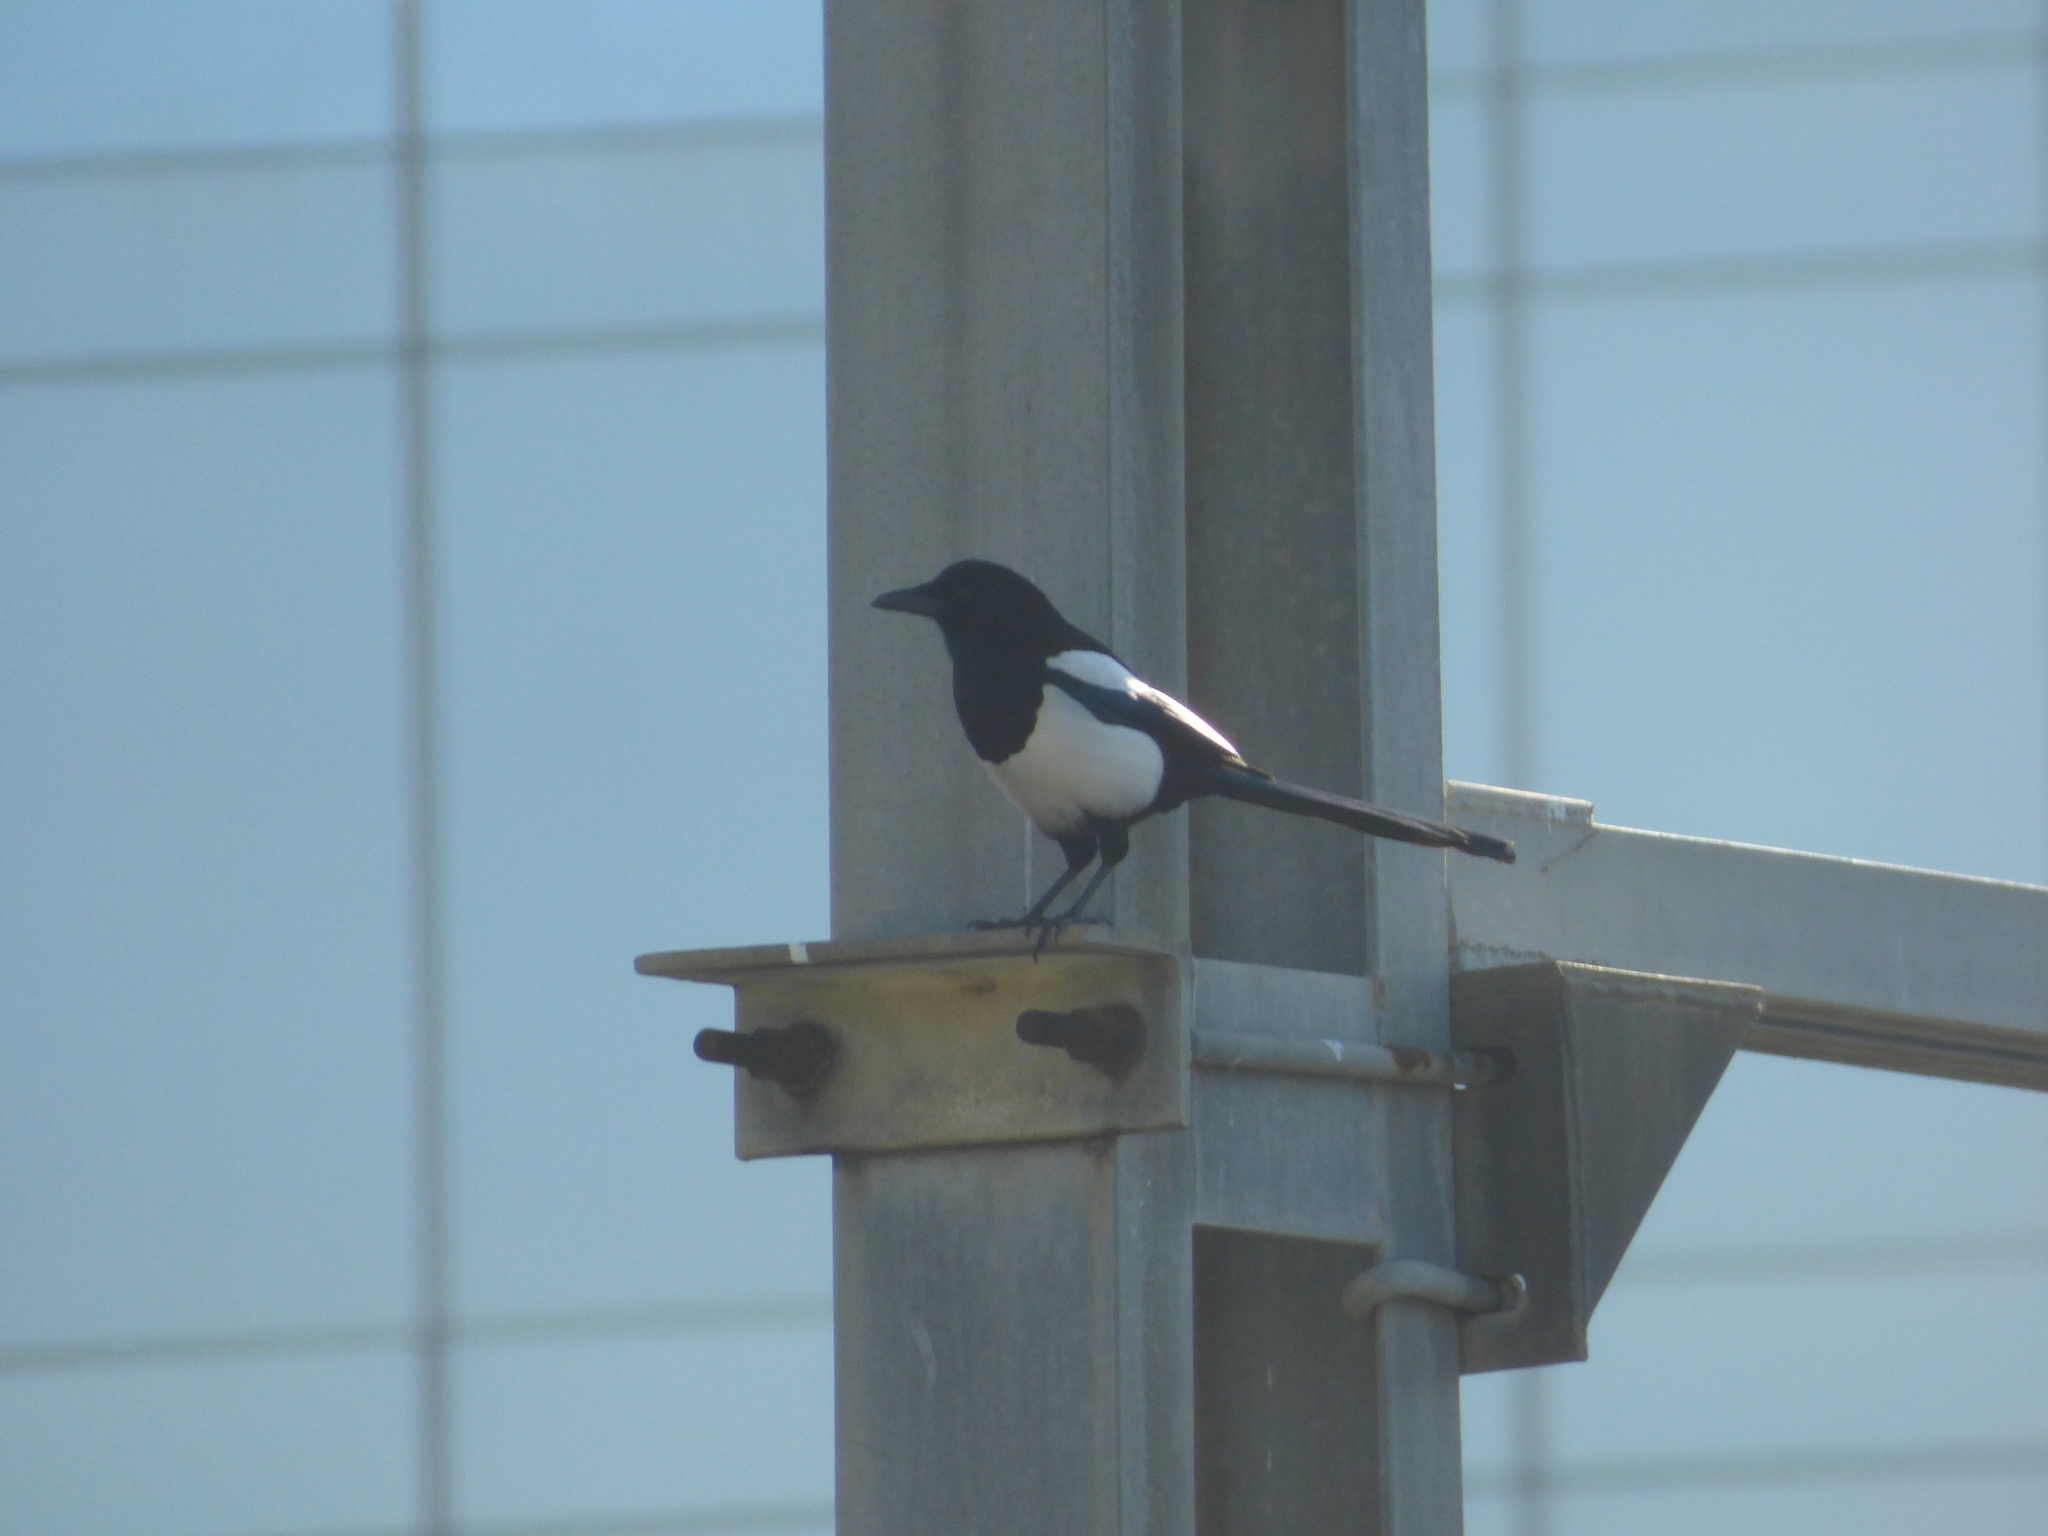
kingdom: Animalia
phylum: Chordata
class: Aves
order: Passeriformes
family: Corvidae
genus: Pica
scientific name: Pica pica
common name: Eurasian magpie
